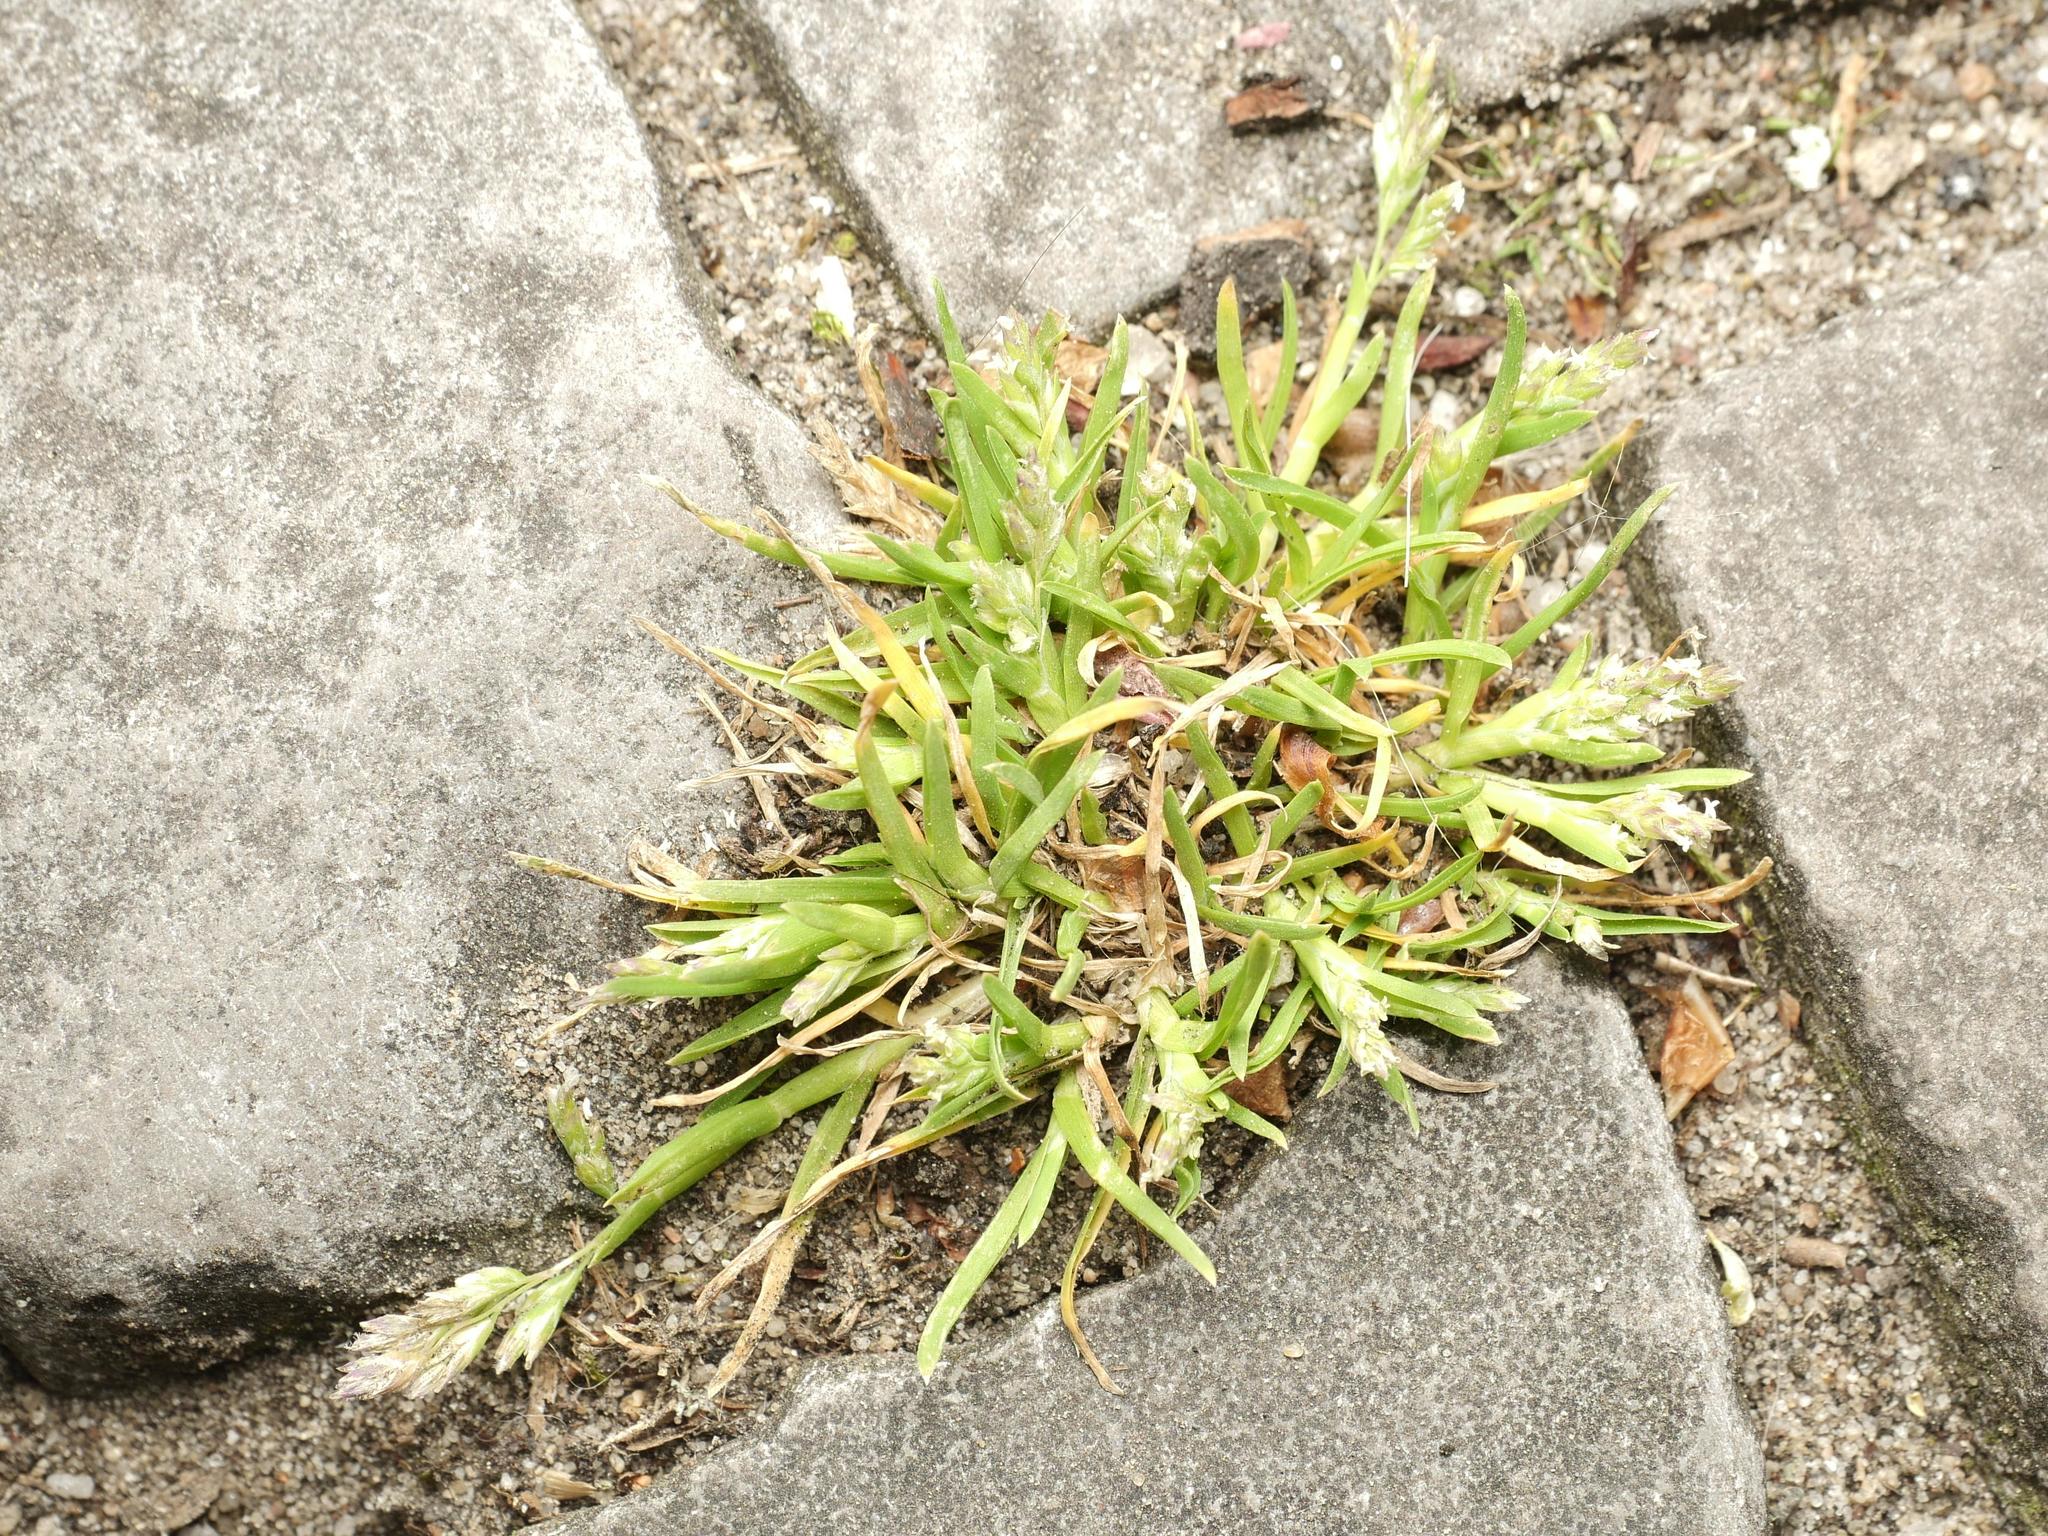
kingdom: Plantae
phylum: Tracheophyta
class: Liliopsida
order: Poales
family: Poaceae
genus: Poa
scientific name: Poa annua
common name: Annual bluegrass
